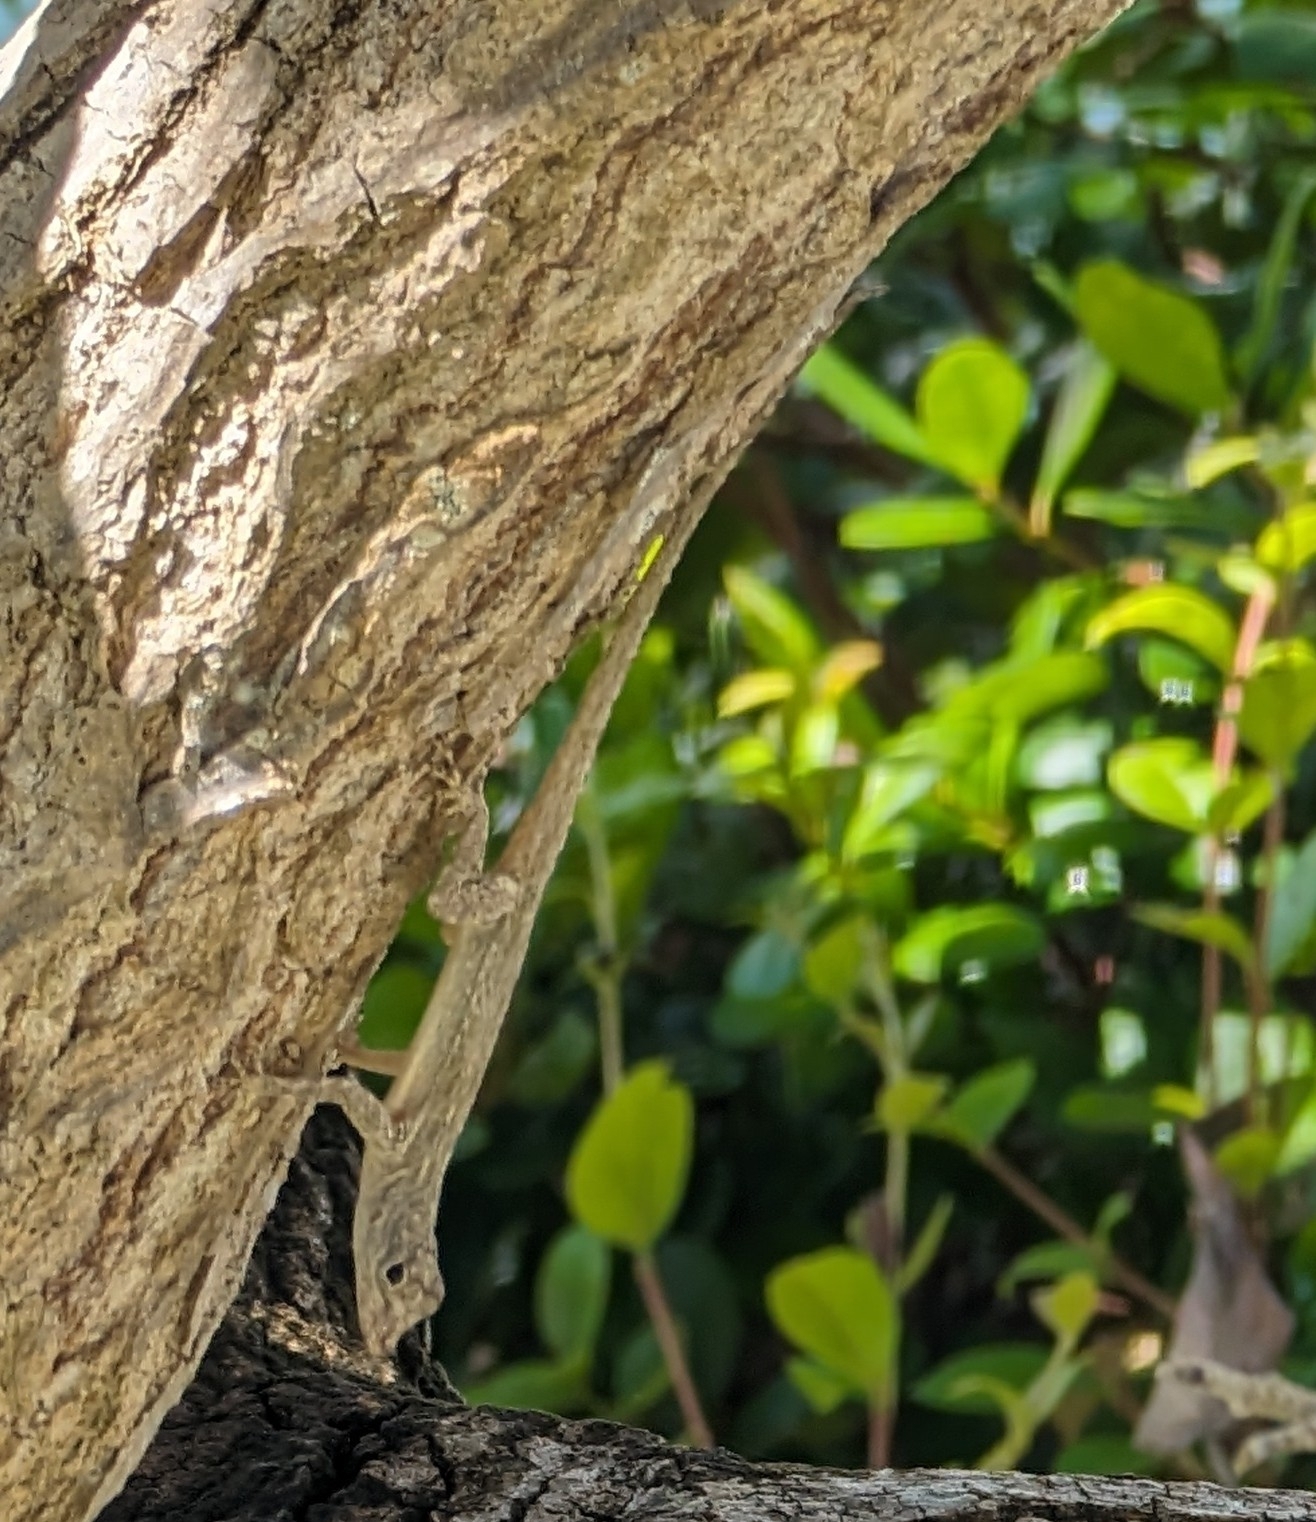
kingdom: Animalia
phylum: Chordata
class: Squamata
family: Dactyloidae
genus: Anolis
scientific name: Anolis distichus
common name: Bark anole
